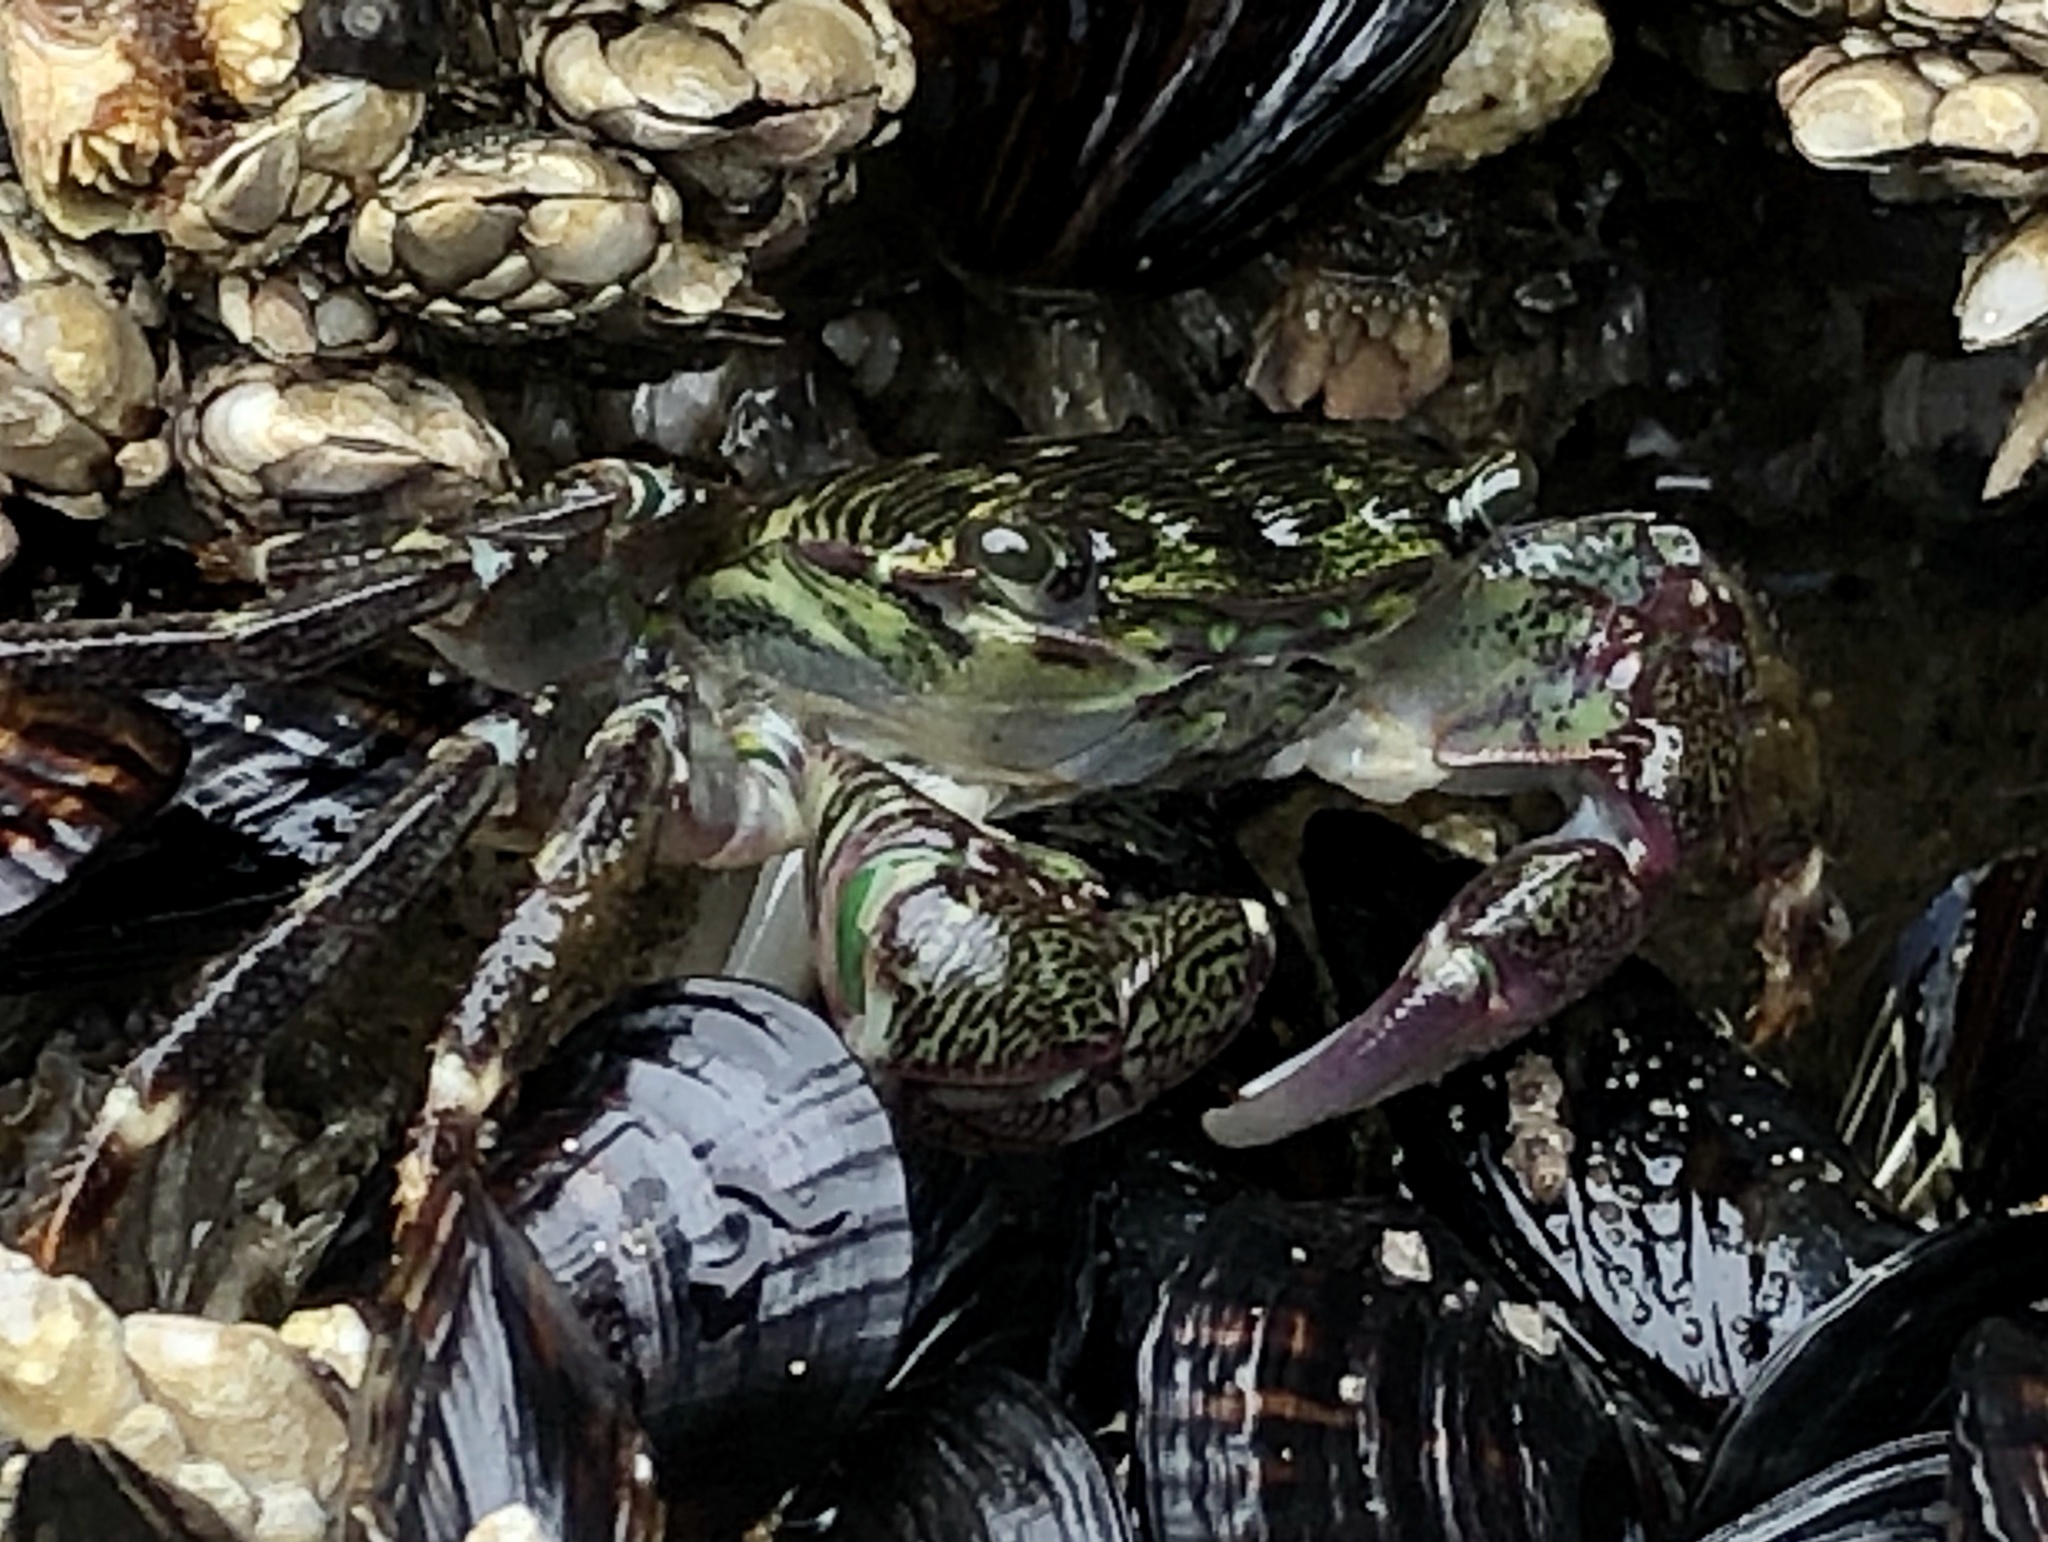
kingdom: Animalia
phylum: Arthropoda
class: Malacostraca
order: Decapoda
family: Grapsidae
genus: Pachygrapsus
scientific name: Pachygrapsus crassipes
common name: Striped shore crab
